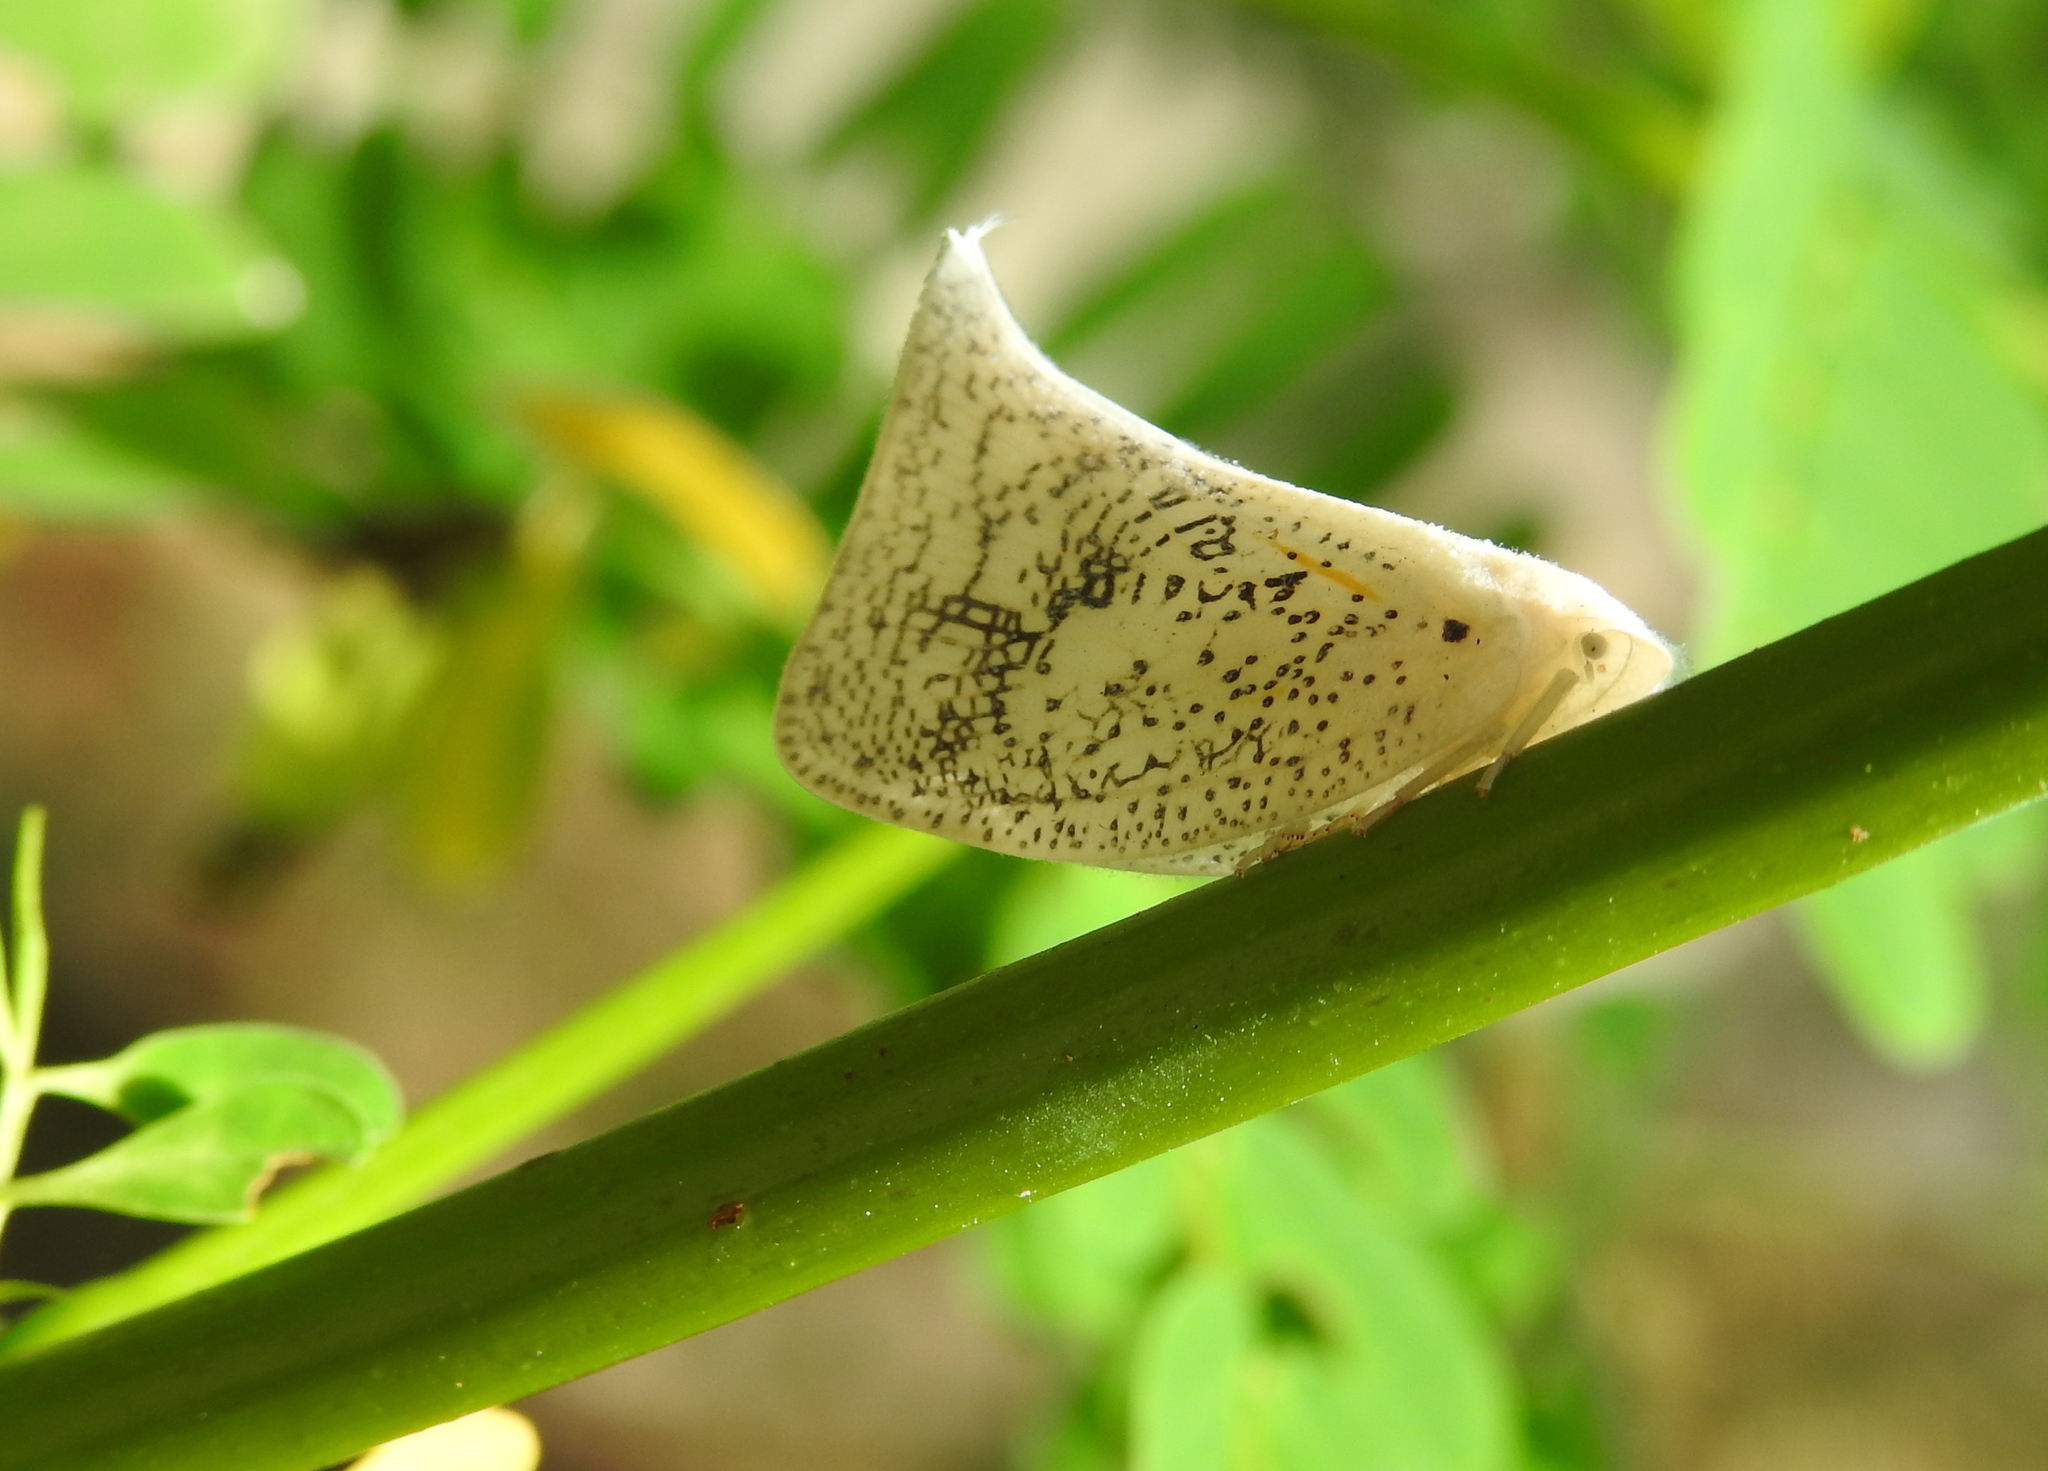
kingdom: Animalia
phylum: Arthropoda
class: Insecta
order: Hemiptera
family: Flatidae
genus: Lawana
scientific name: Lawana conspersa
